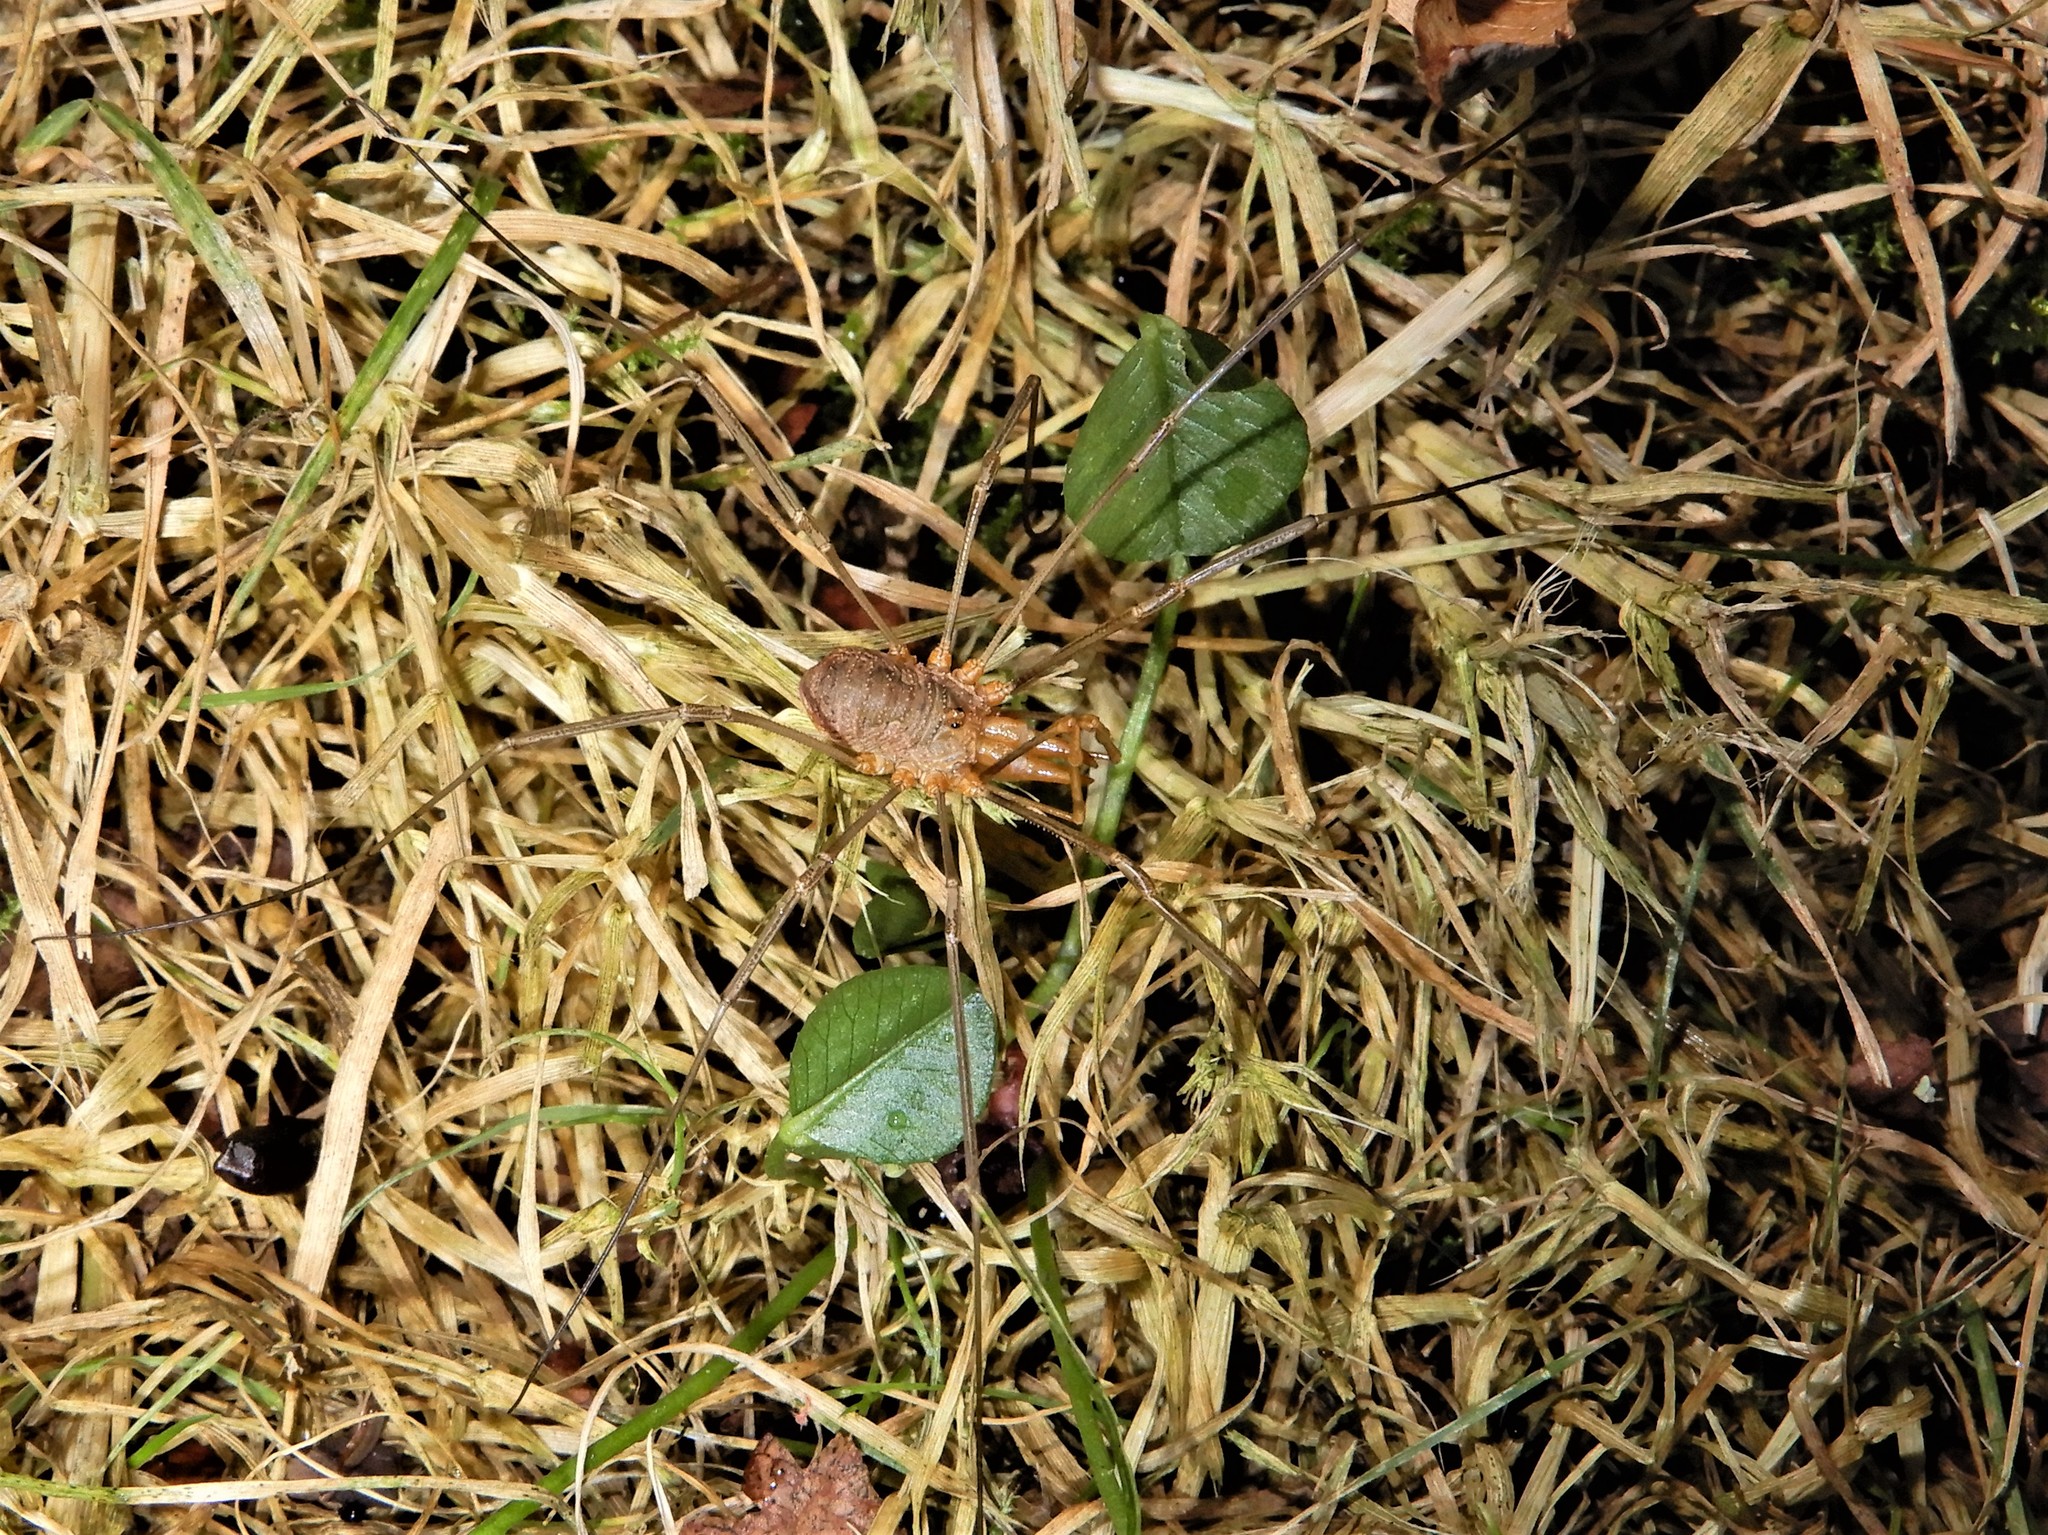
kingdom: Animalia
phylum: Arthropoda
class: Arachnida
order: Opiliones
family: Phalangiidae
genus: Phalangium
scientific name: Phalangium opilio
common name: Daddy longleg
